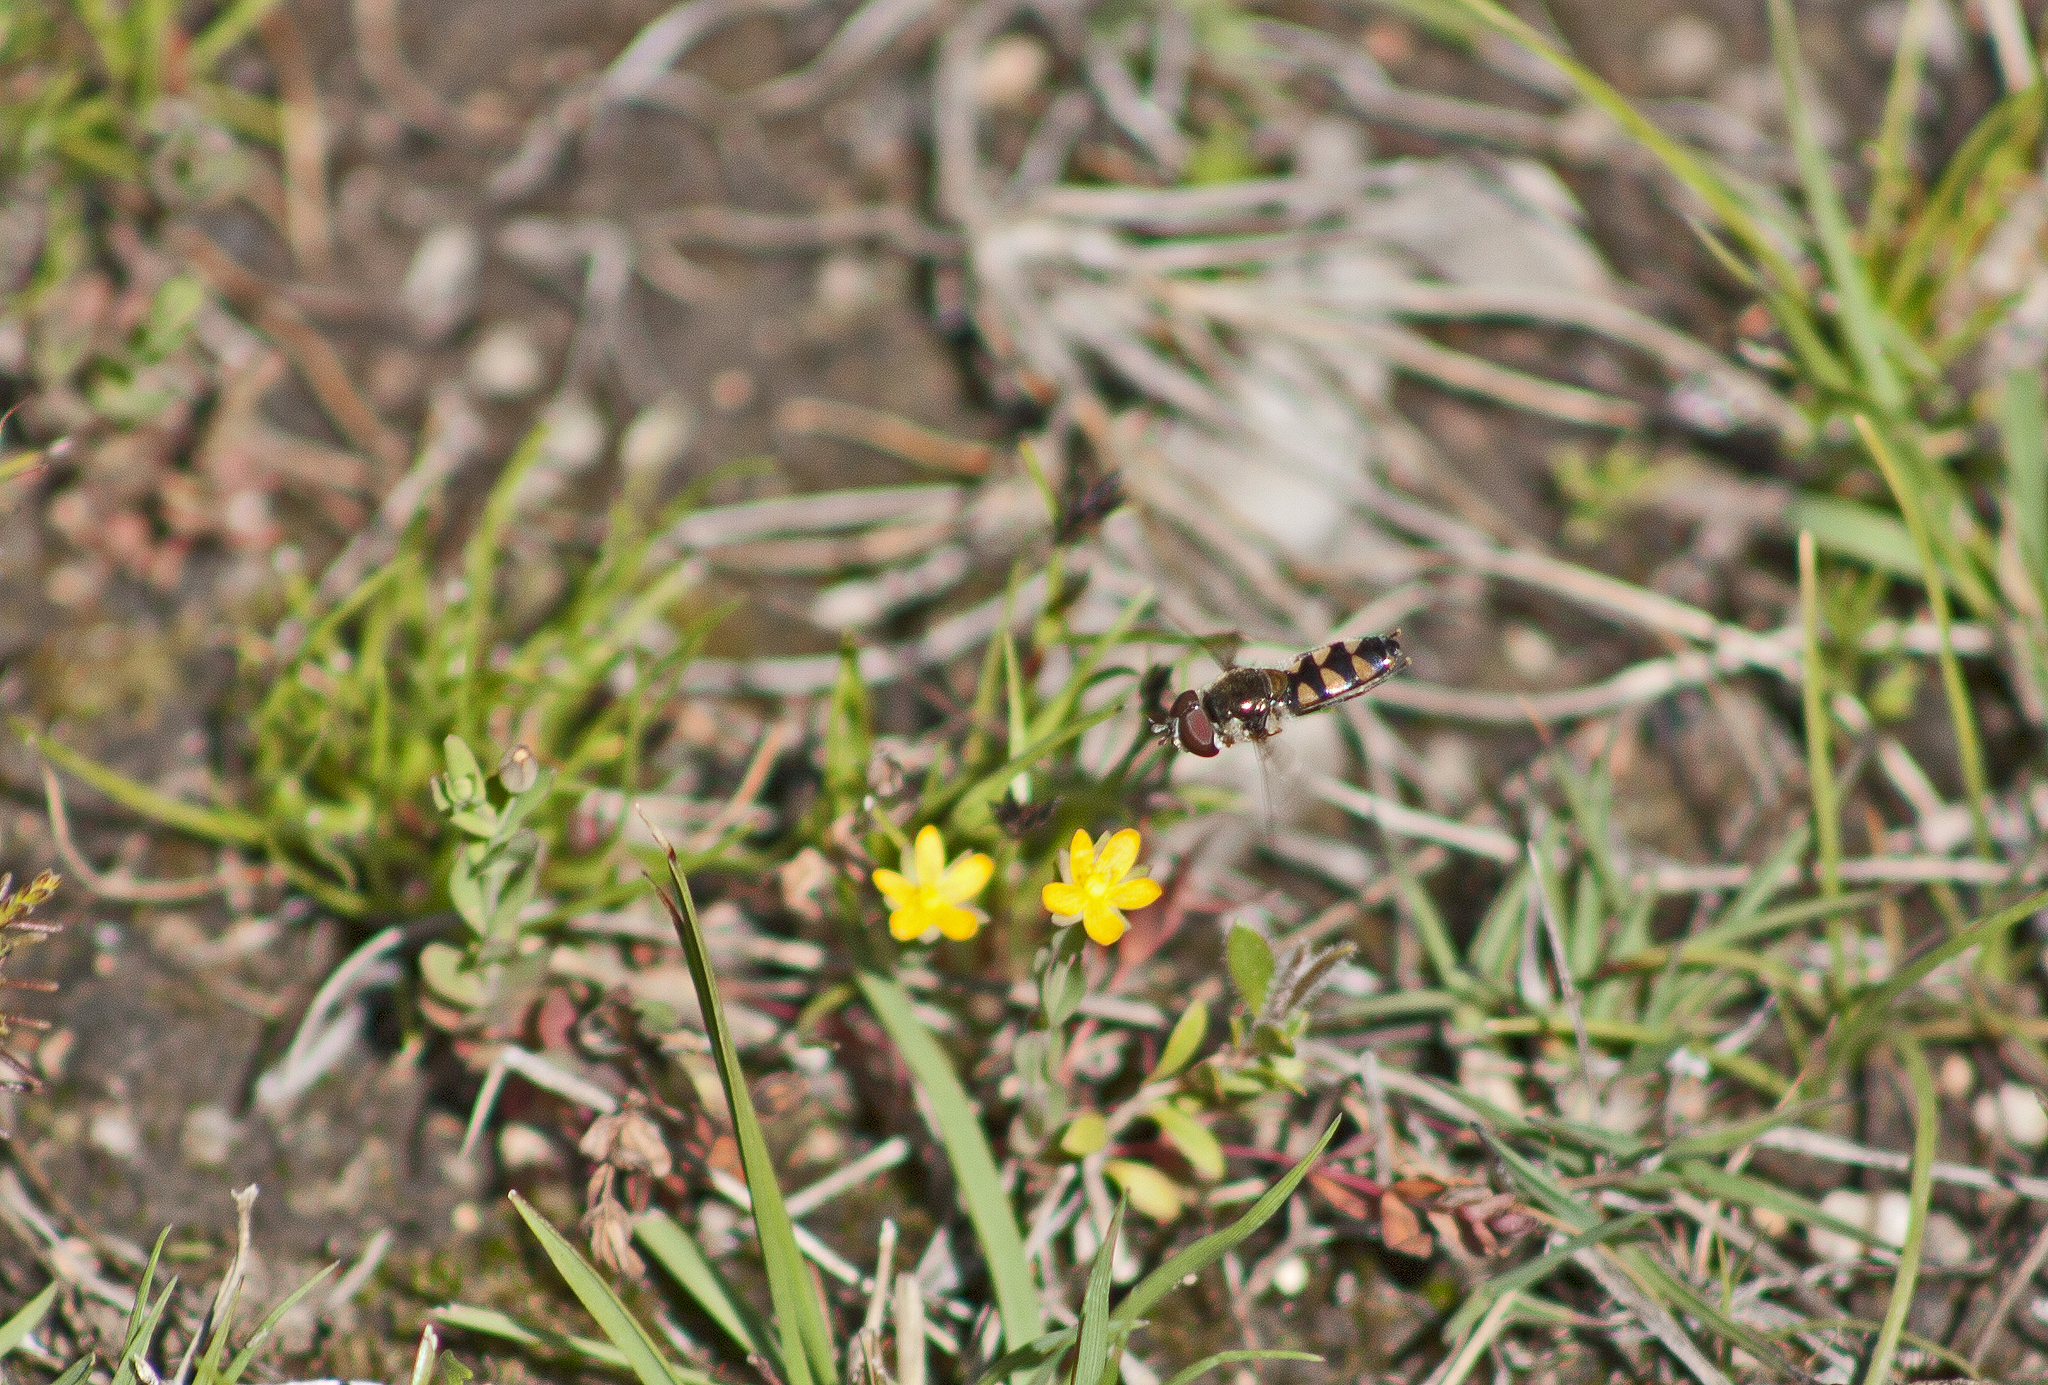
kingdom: Plantae
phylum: Tracheophyta
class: Magnoliopsida
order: Malpighiales
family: Hypericaceae
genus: Hypericum
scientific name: Hypericum gramineum
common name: Grassy st. johnswort
